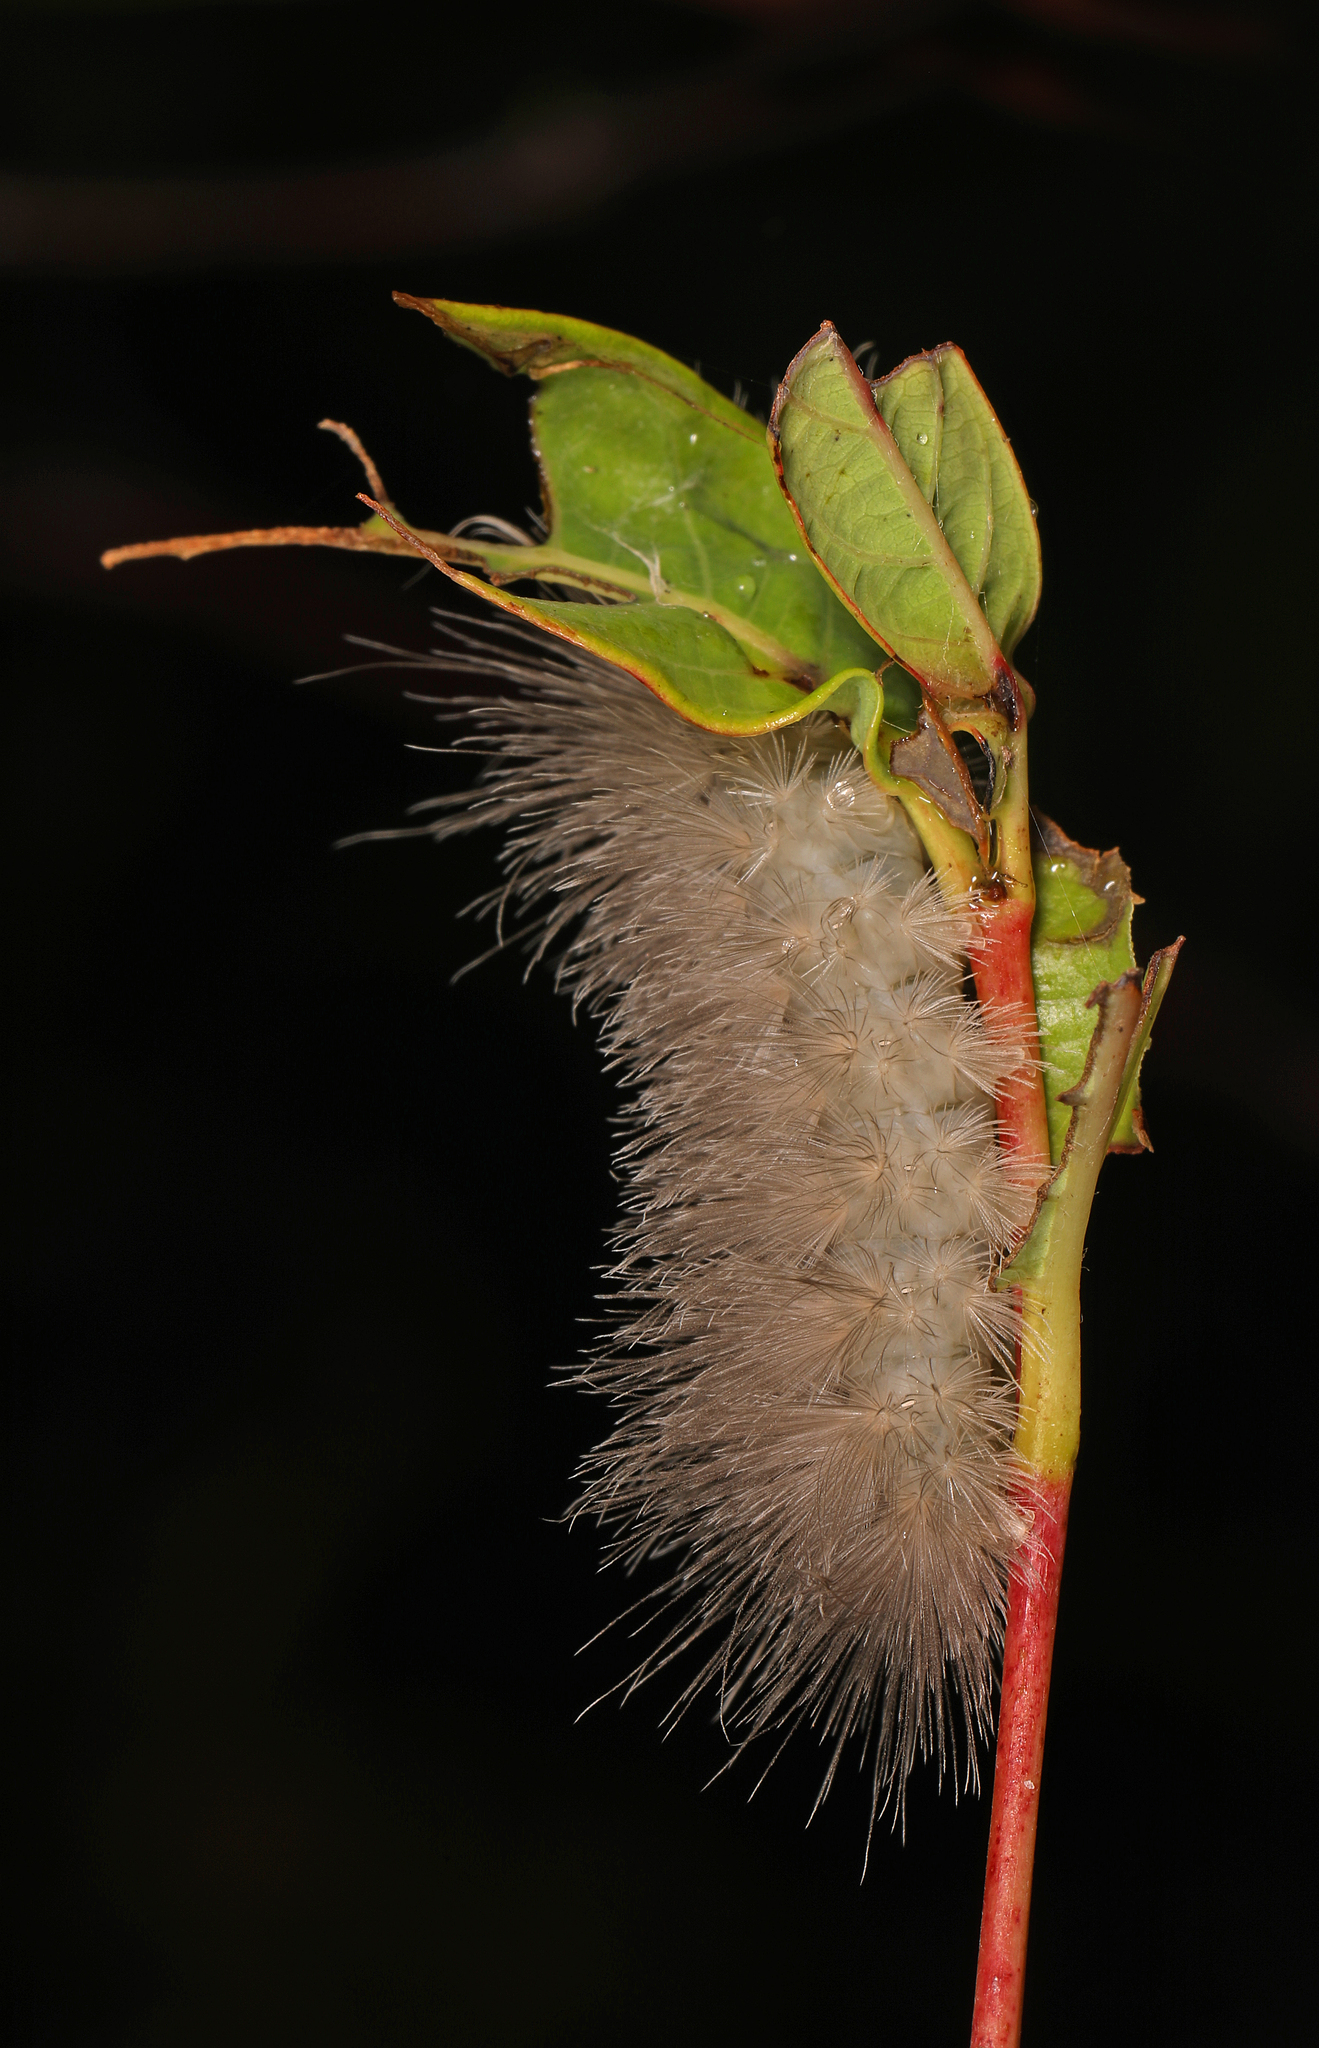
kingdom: Animalia
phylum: Arthropoda
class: Insecta
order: Lepidoptera
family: Erebidae
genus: Cycnia
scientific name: Cycnia tenera
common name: Delicate cycnia moth
